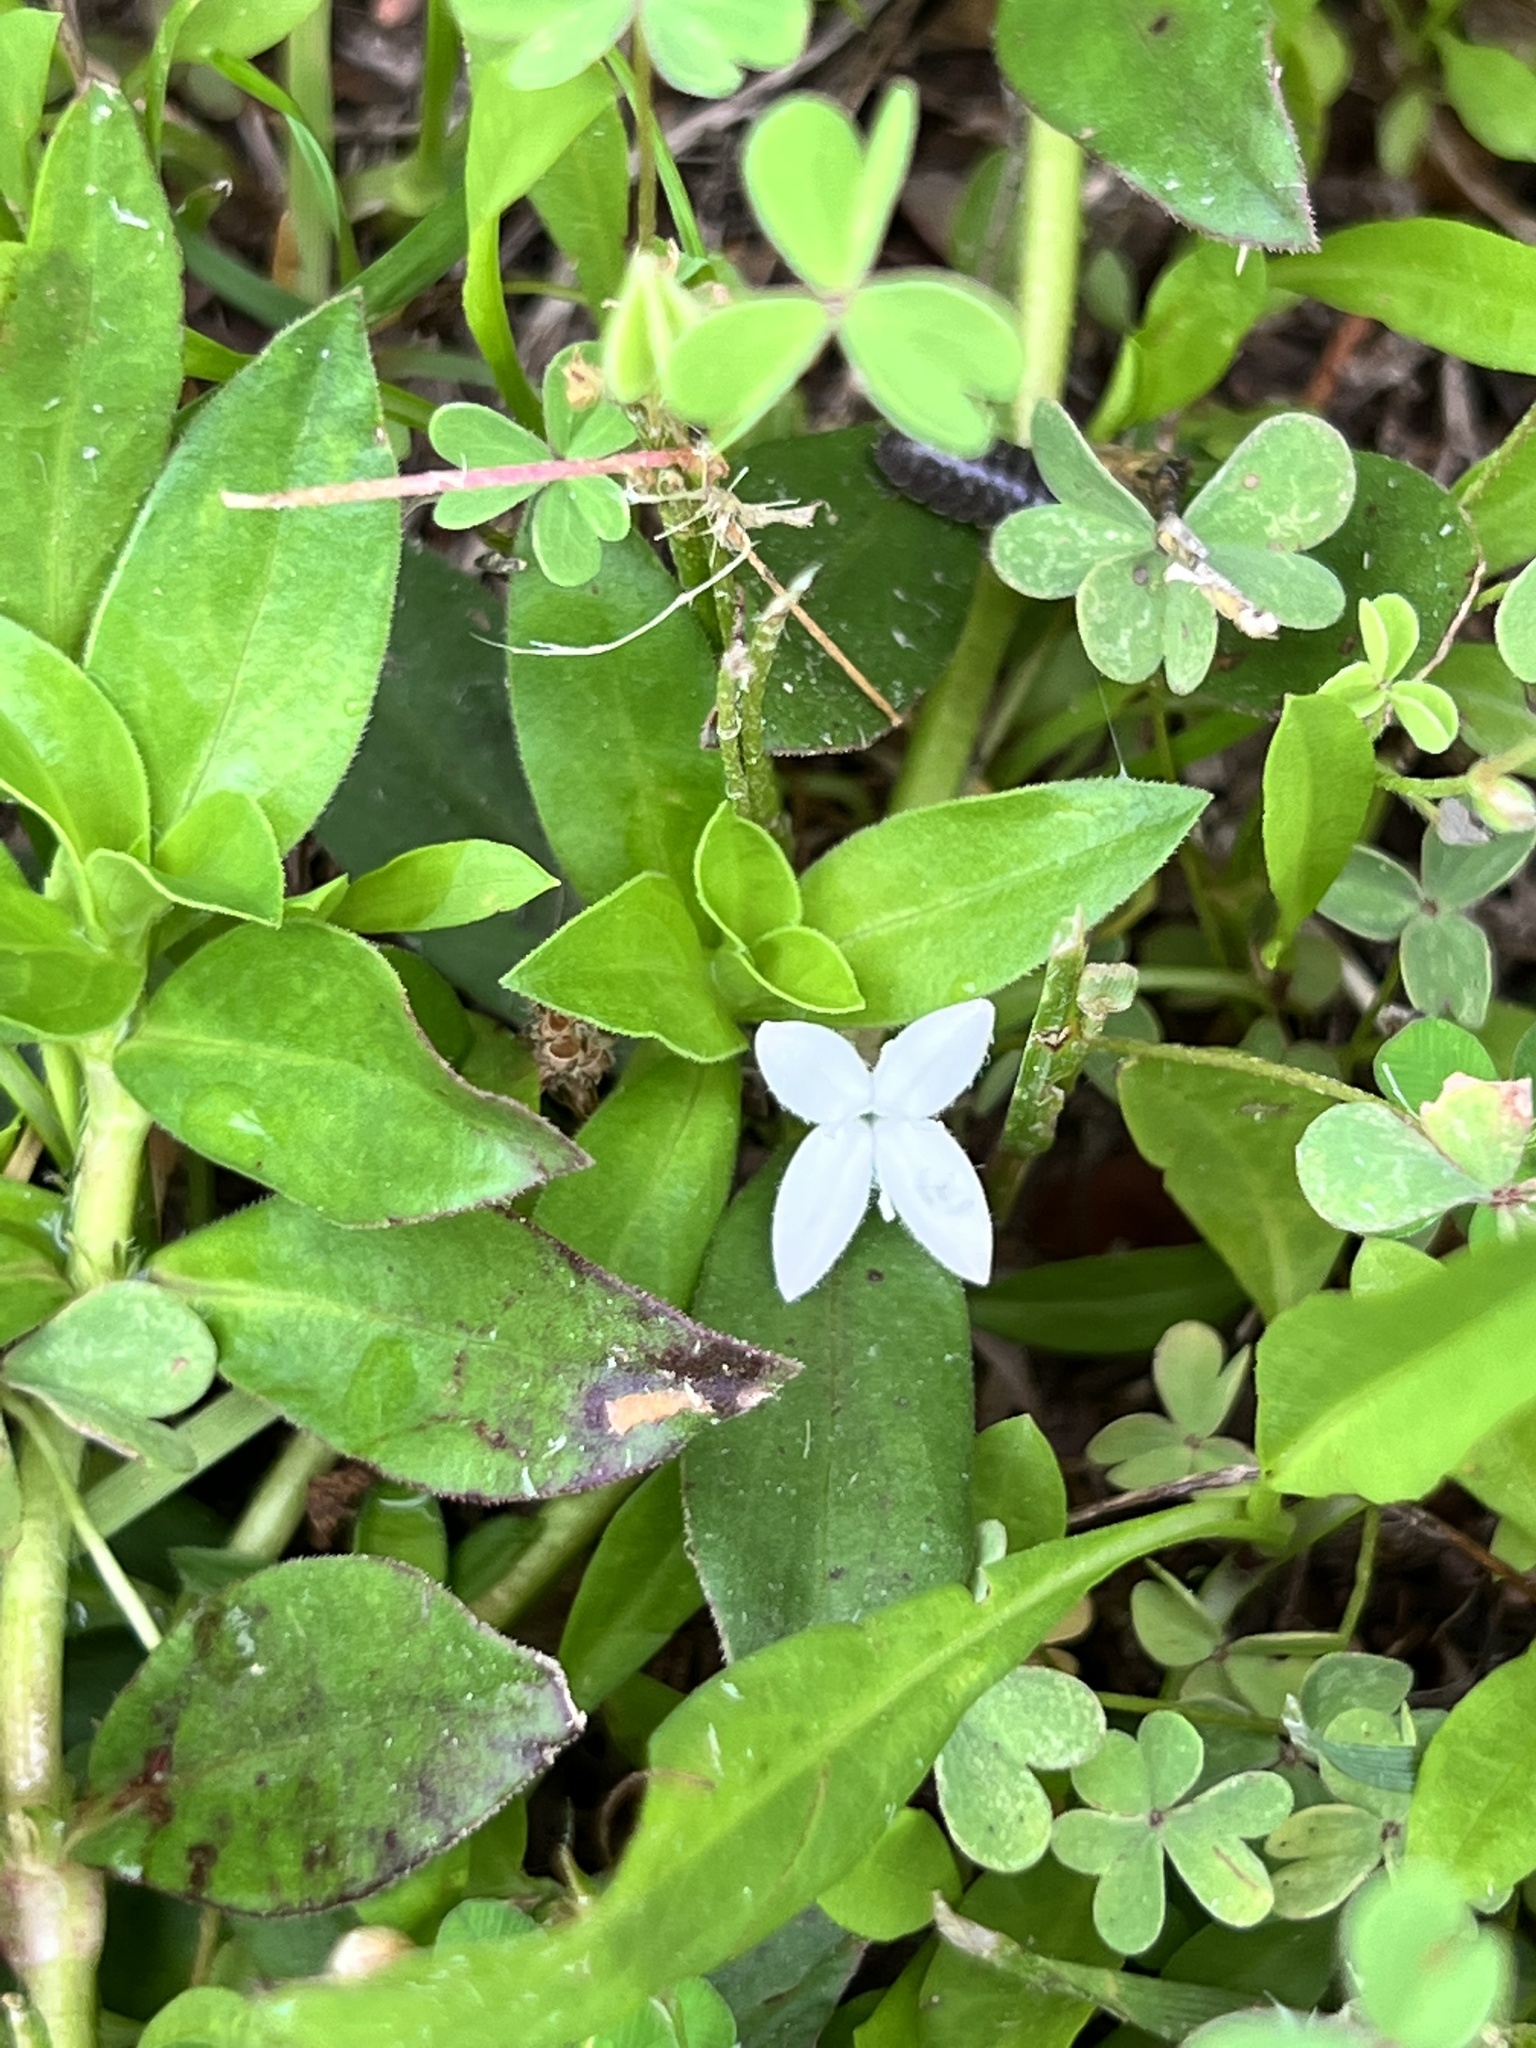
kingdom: Plantae
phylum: Tracheophyta
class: Magnoliopsida
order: Gentianales
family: Rubiaceae
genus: Diodia
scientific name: Diodia virginiana
